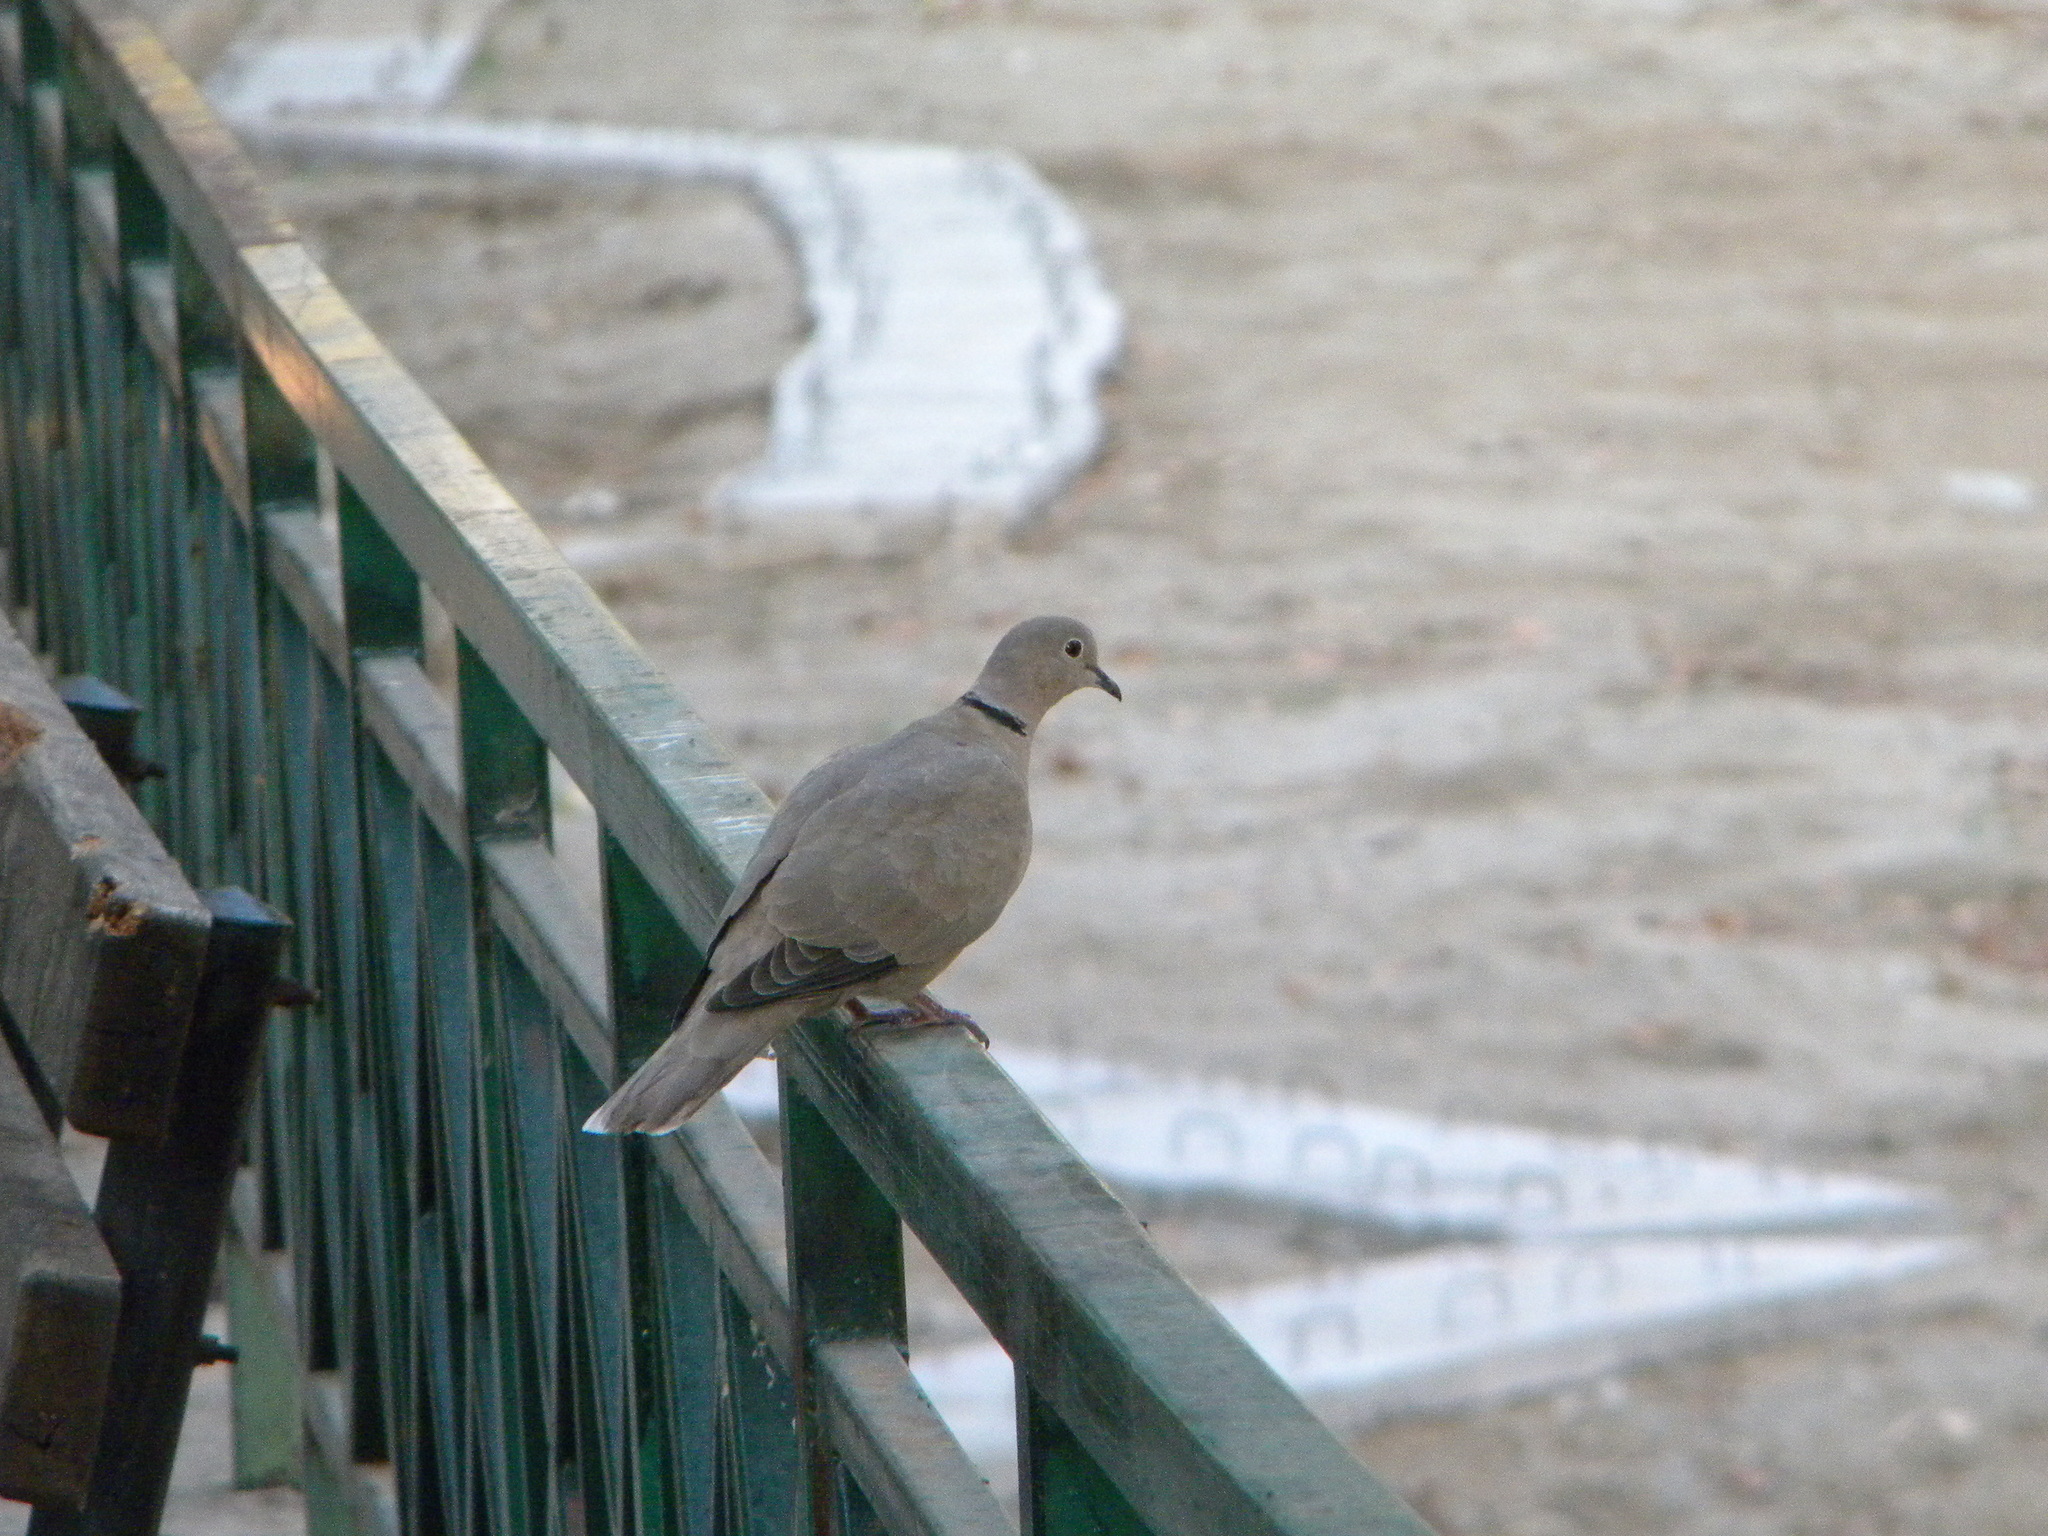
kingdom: Animalia
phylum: Chordata
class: Aves
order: Columbiformes
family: Columbidae
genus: Streptopelia
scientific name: Streptopelia decaocto
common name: Eurasian collared dove
